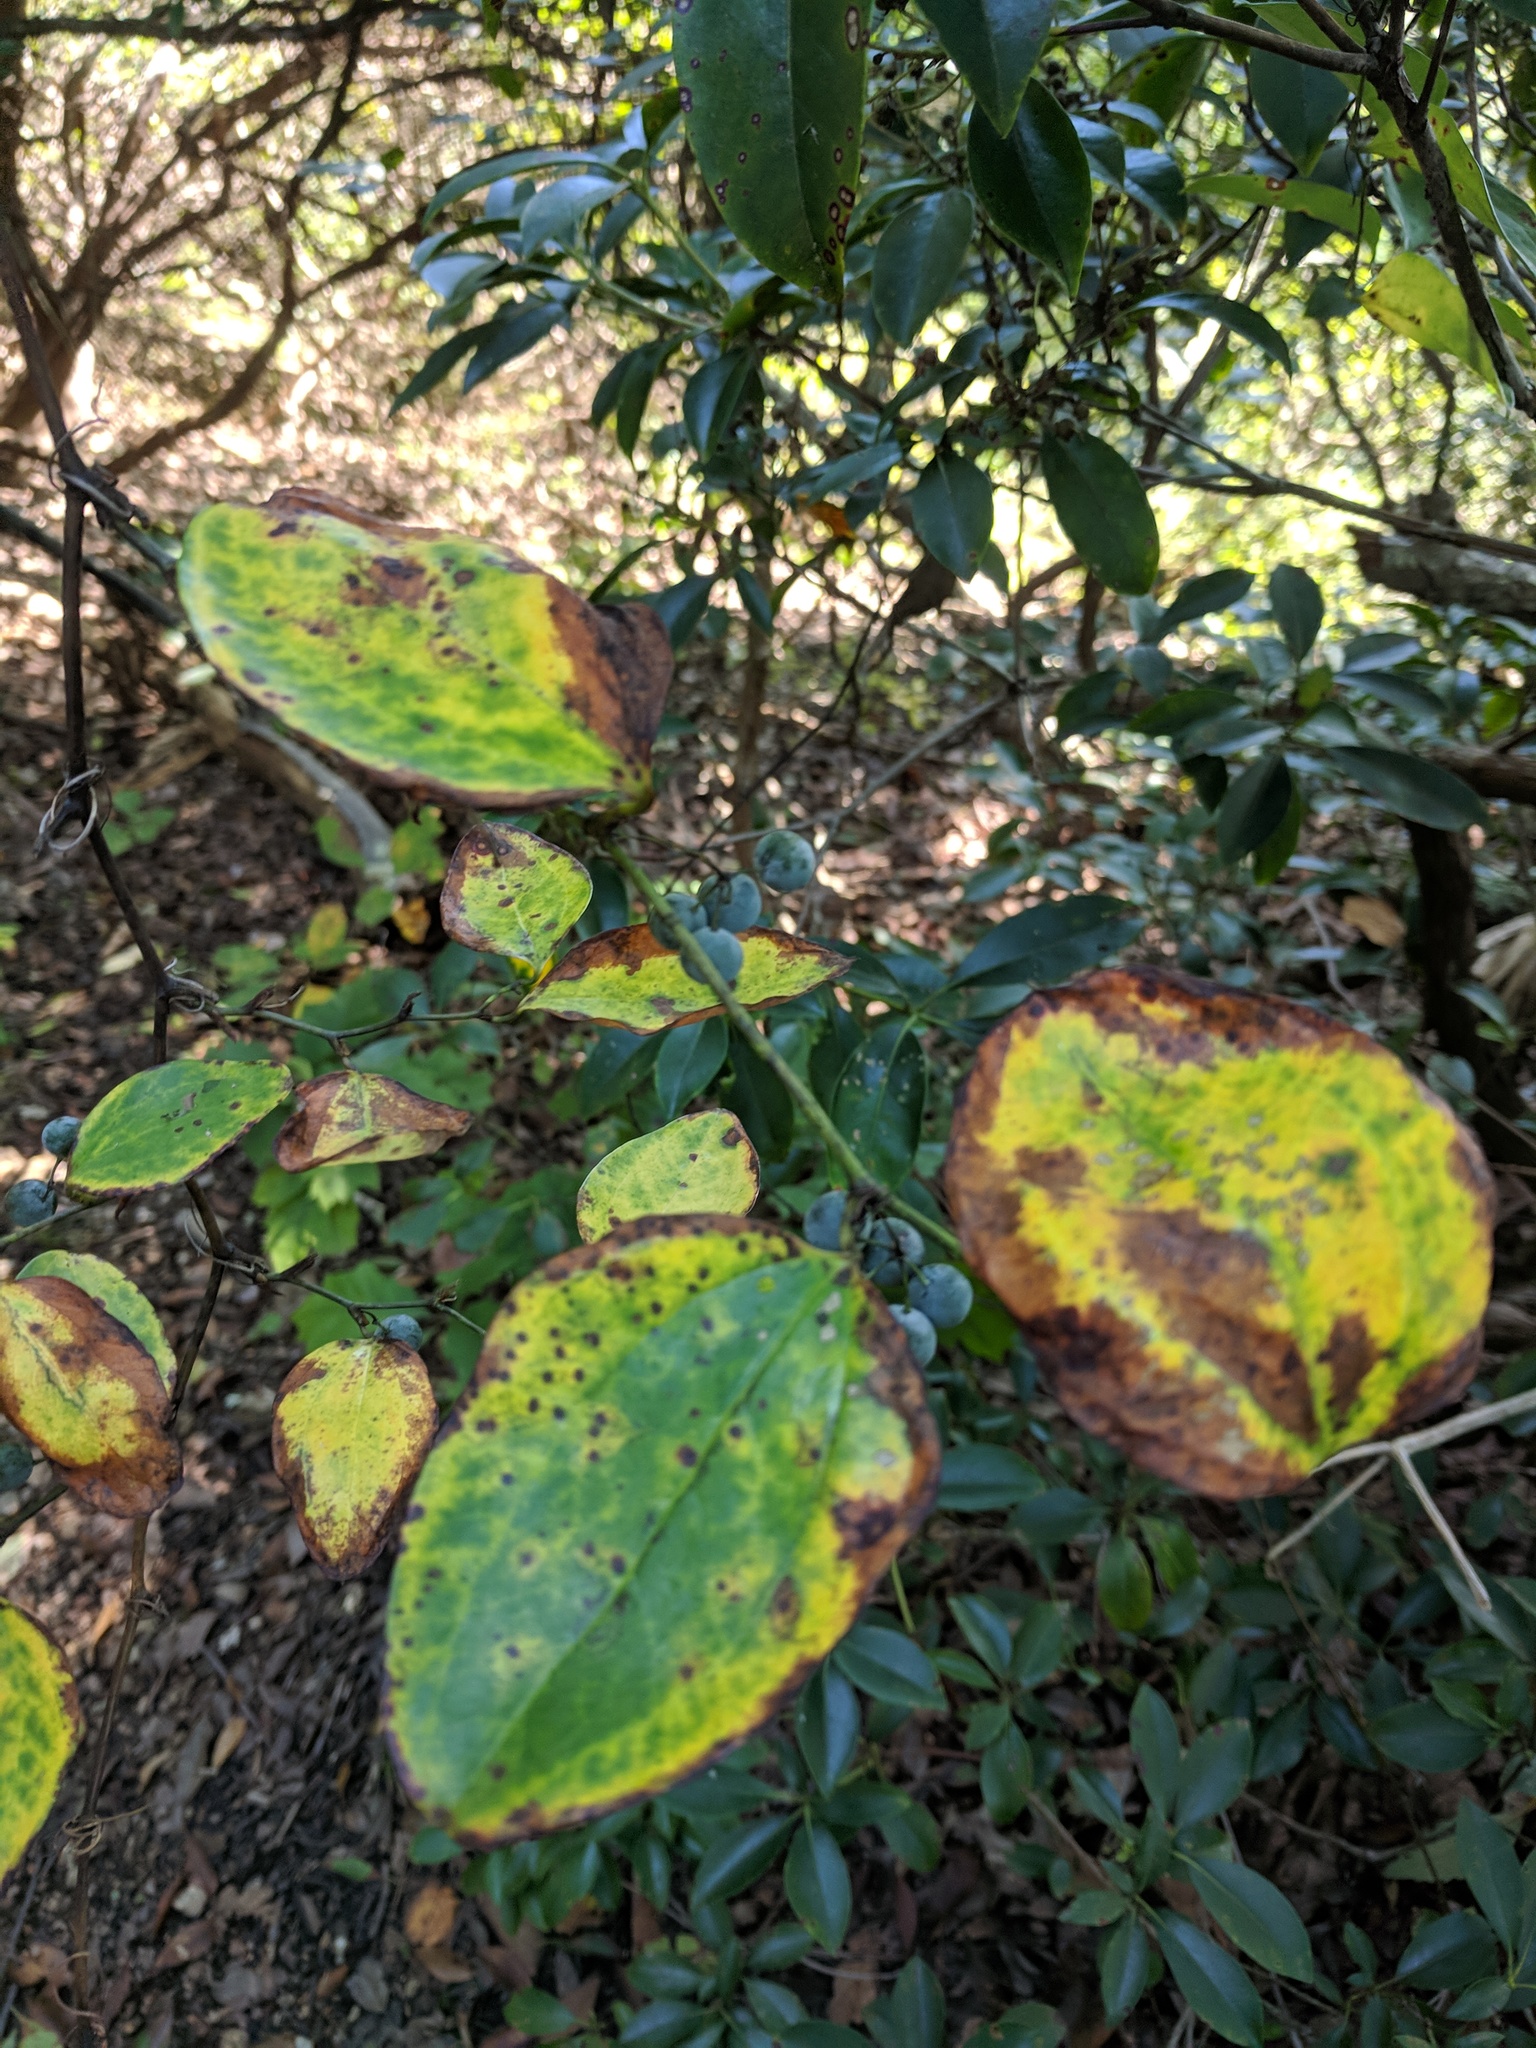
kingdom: Plantae
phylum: Tracheophyta
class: Liliopsida
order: Liliales
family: Smilacaceae
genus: Smilax
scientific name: Smilax rotundifolia
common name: Bullbriar
